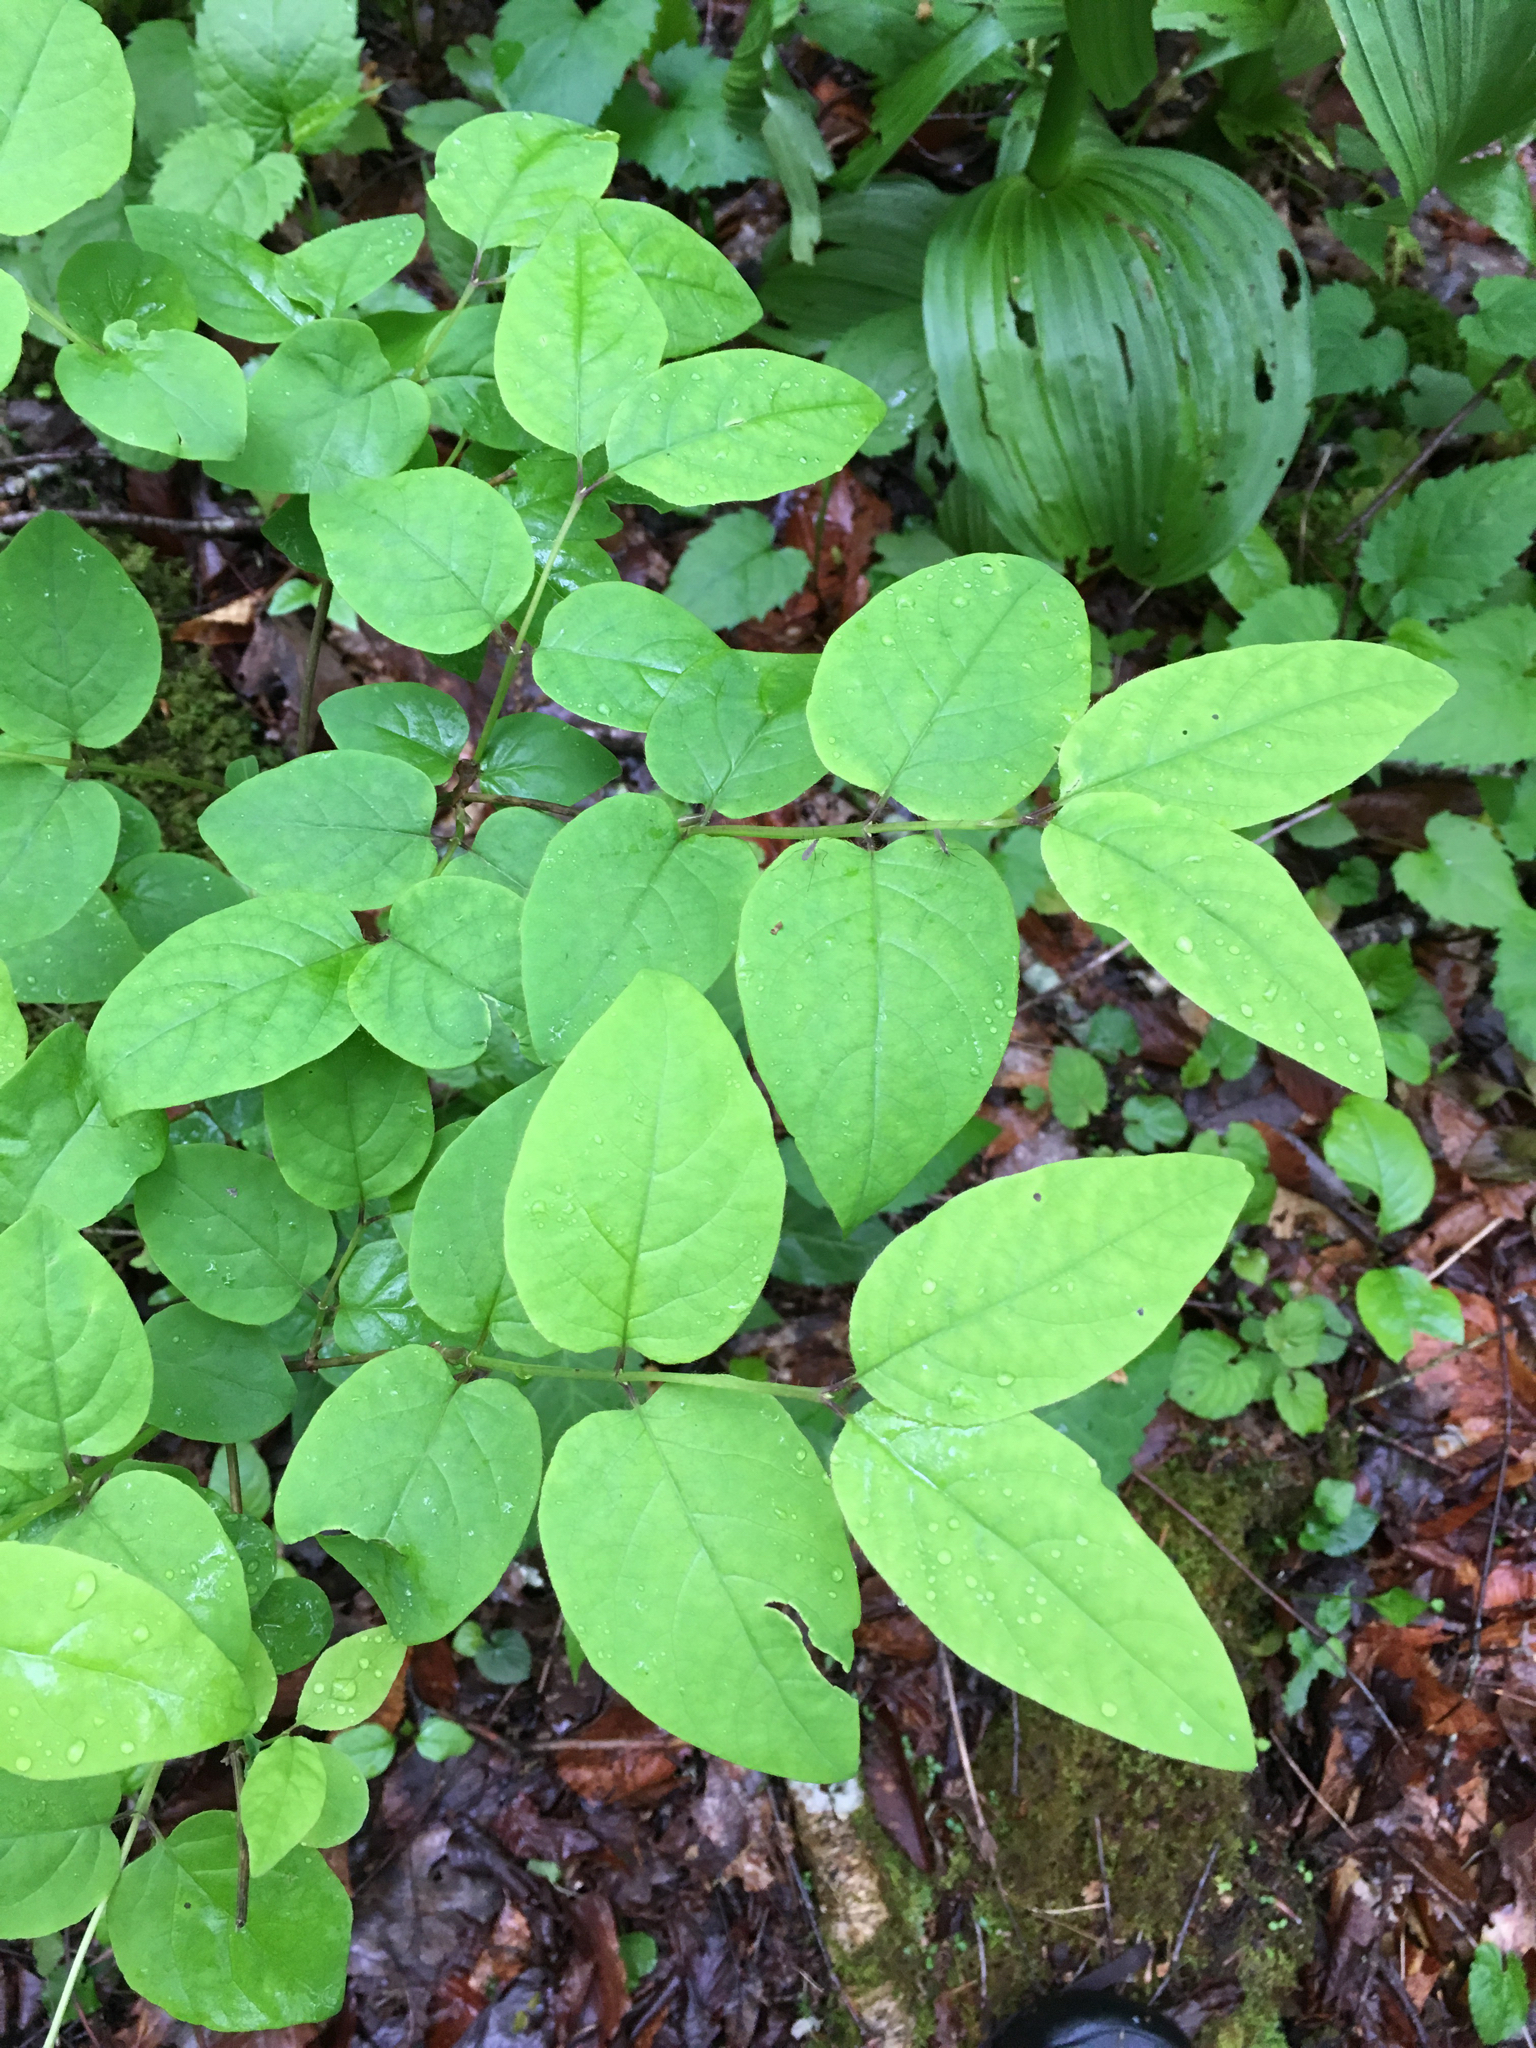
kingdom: Plantae
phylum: Tracheophyta
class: Magnoliopsida
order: Dipsacales
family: Caprifoliaceae
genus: Lonicera
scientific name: Lonicera canadensis
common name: American fly-honeysuckle
